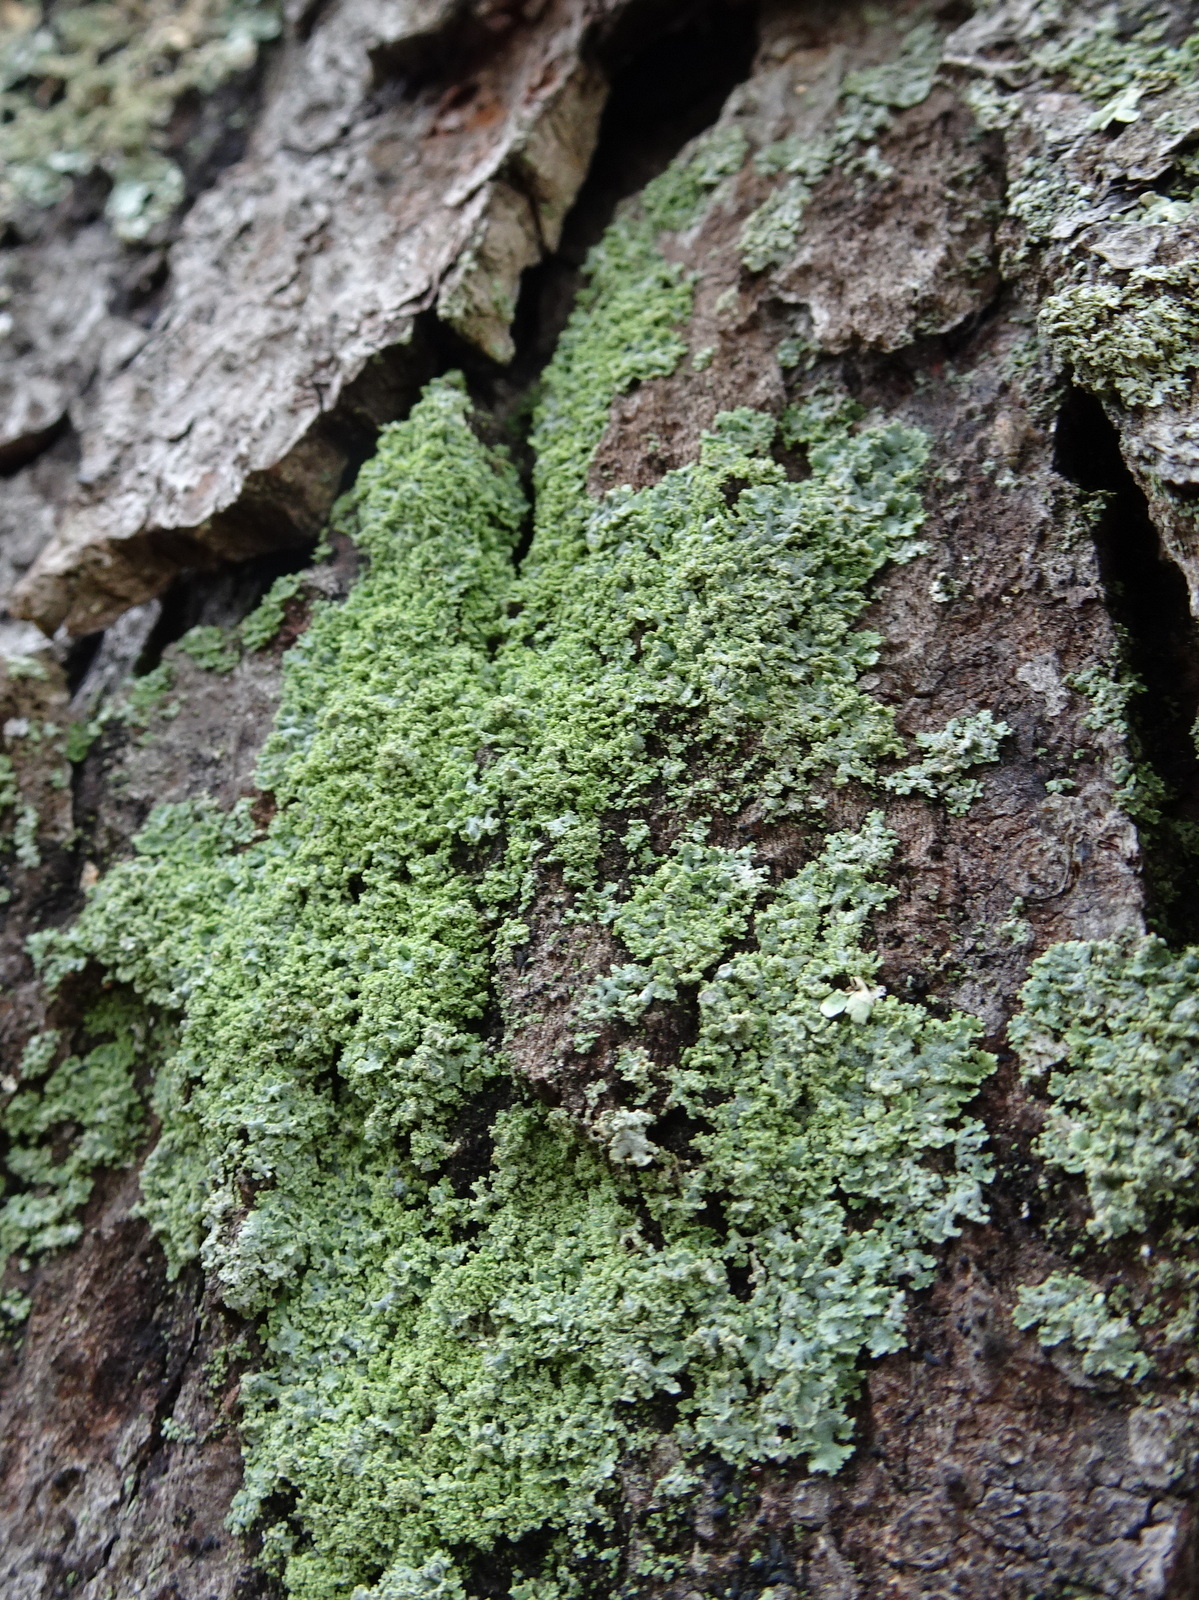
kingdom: Fungi
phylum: Ascomycota
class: Lecanoromycetes
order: Caliciales
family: Physciaceae
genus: Physcia
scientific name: Physcia millegrana
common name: Rosette lichen
